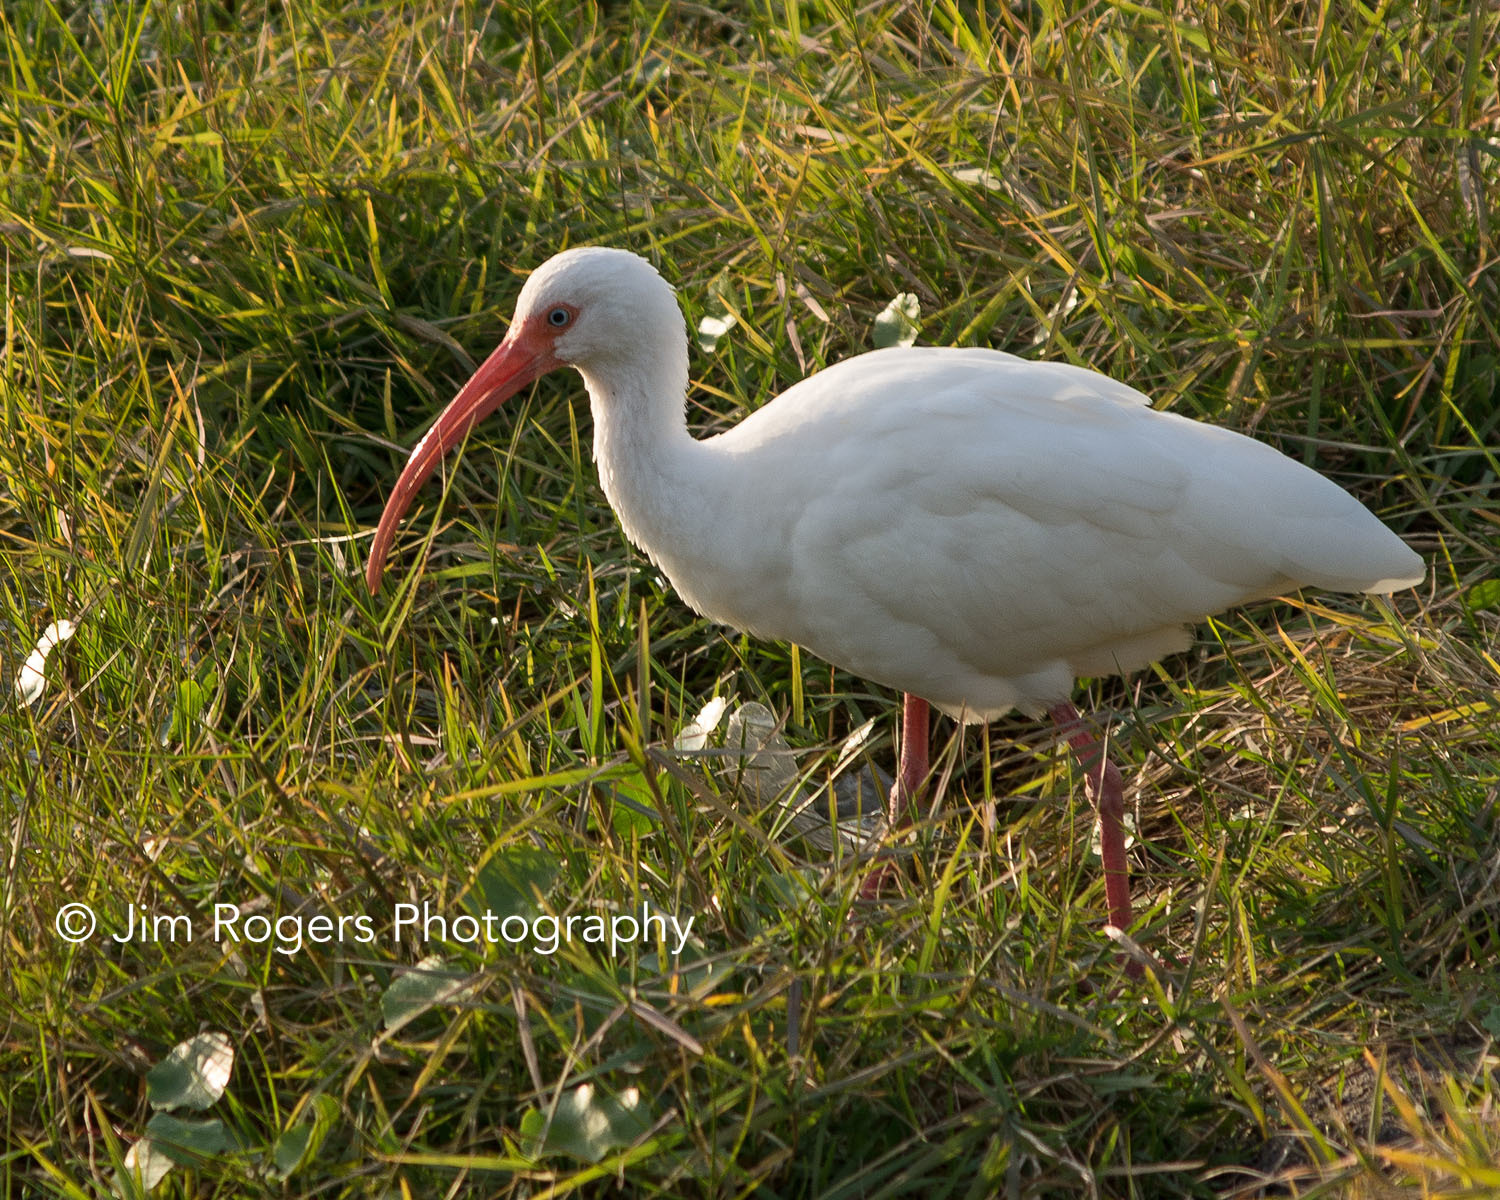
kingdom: Animalia
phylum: Chordata
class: Aves
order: Pelecaniformes
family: Threskiornithidae
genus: Eudocimus
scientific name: Eudocimus albus
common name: White ibis
